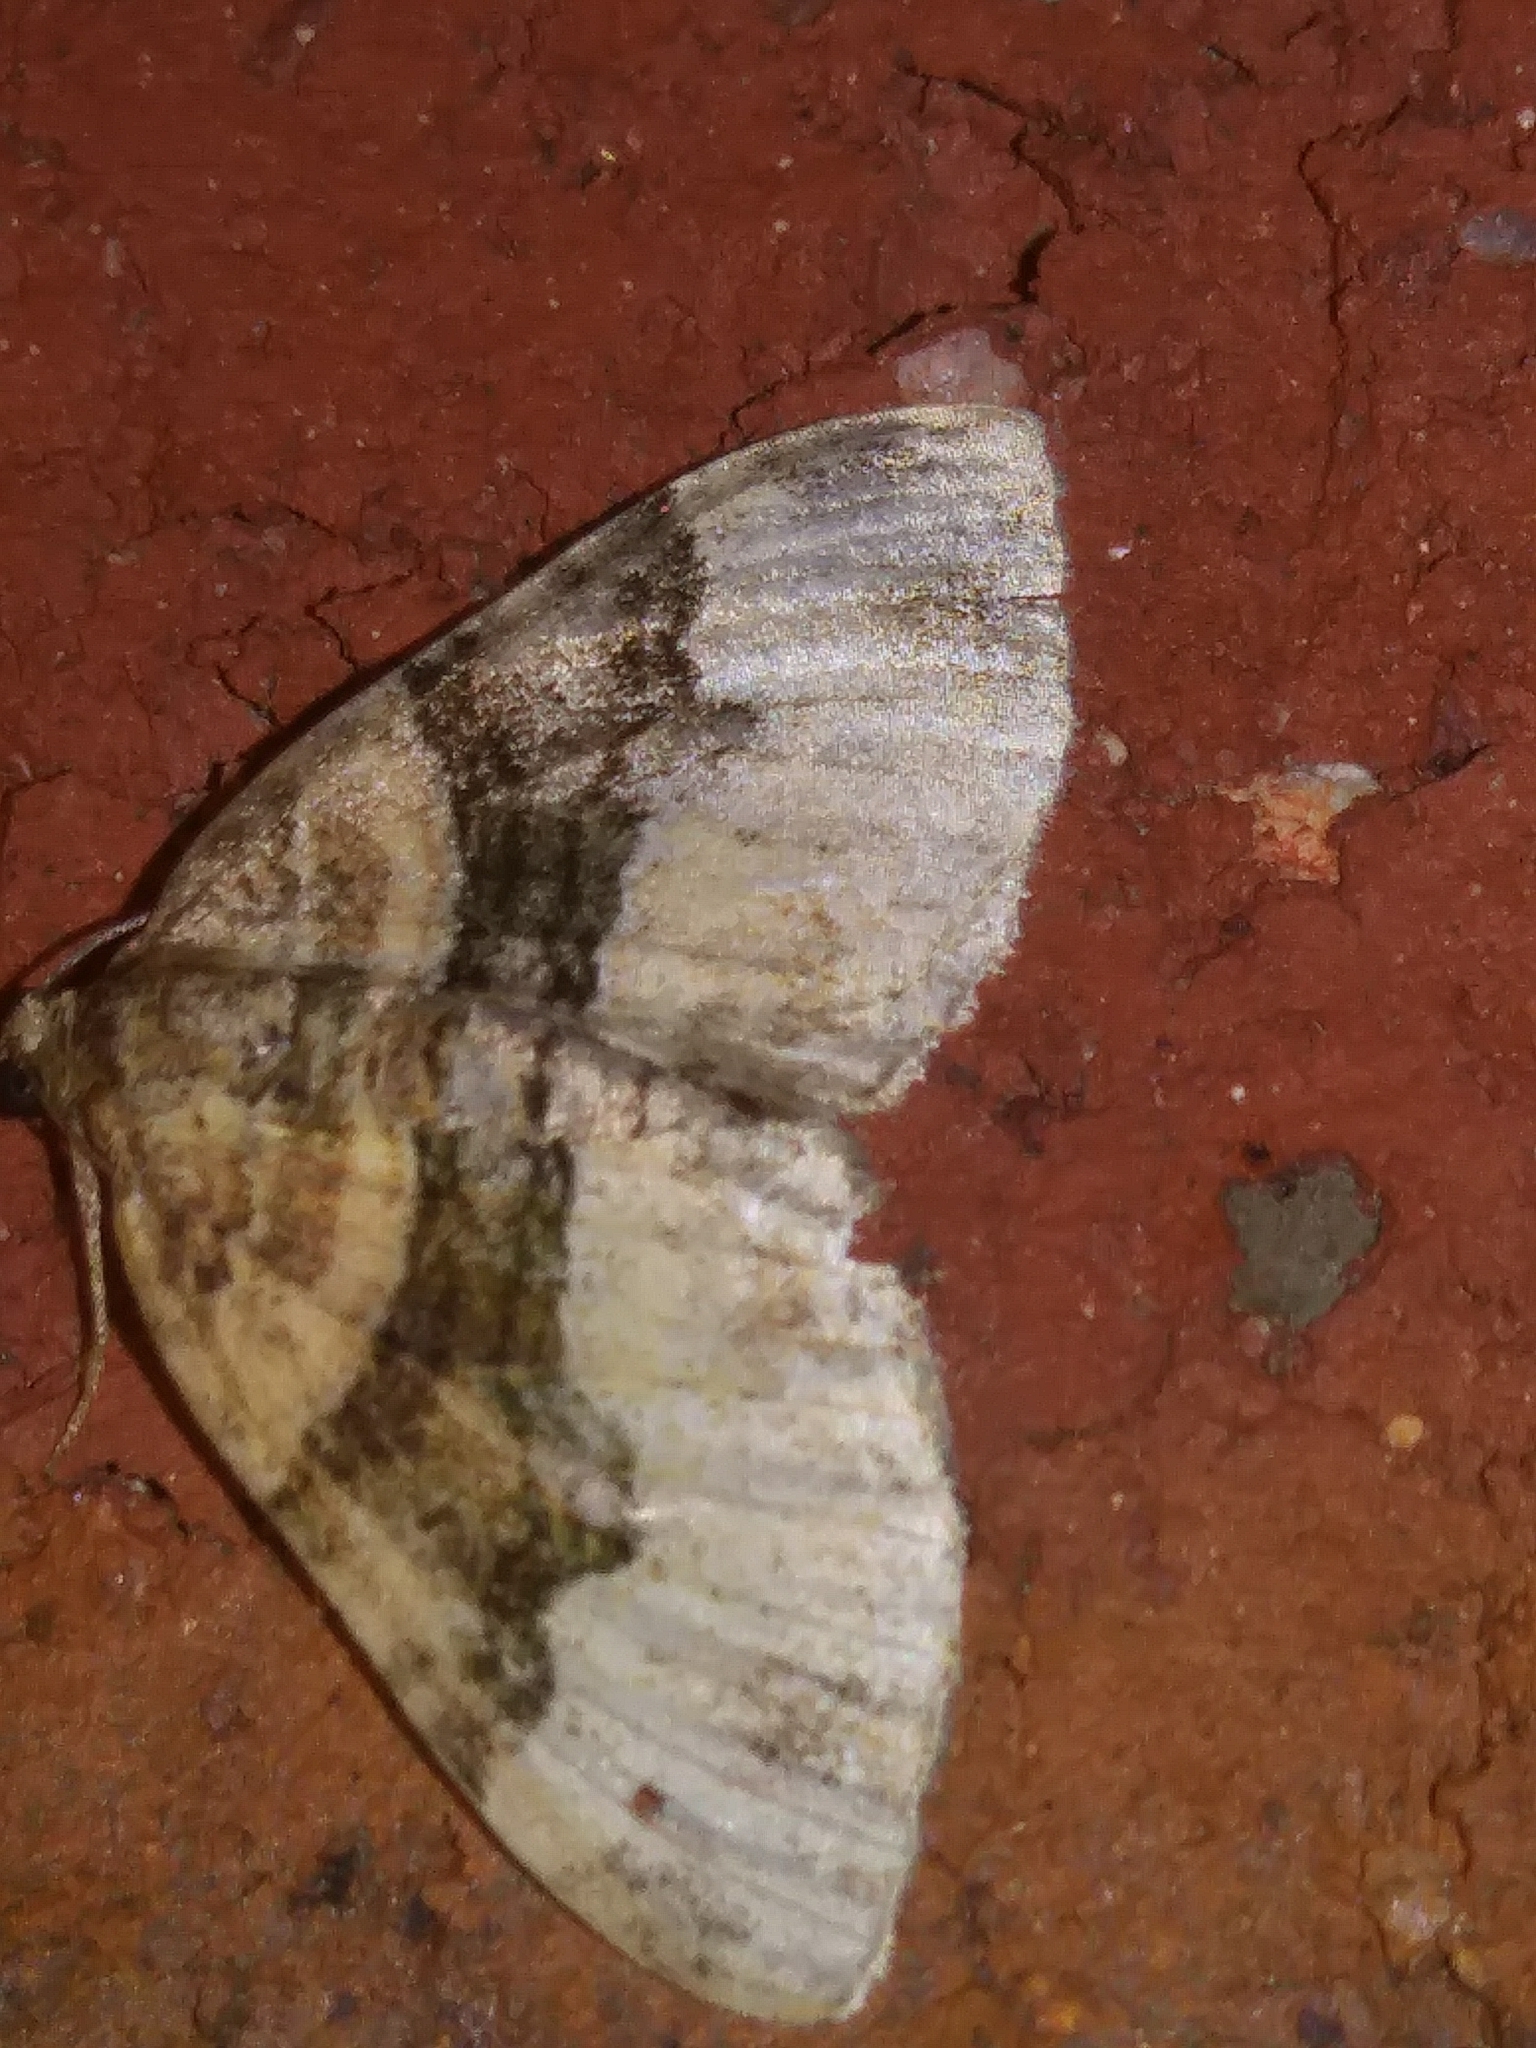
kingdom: Animalia
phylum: Arthropoda
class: Insecta
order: Lepidoptera
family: Geometridae
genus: Xanthorhoe
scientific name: Xanthorhoe lacustrata
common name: Toothed brown carpet
